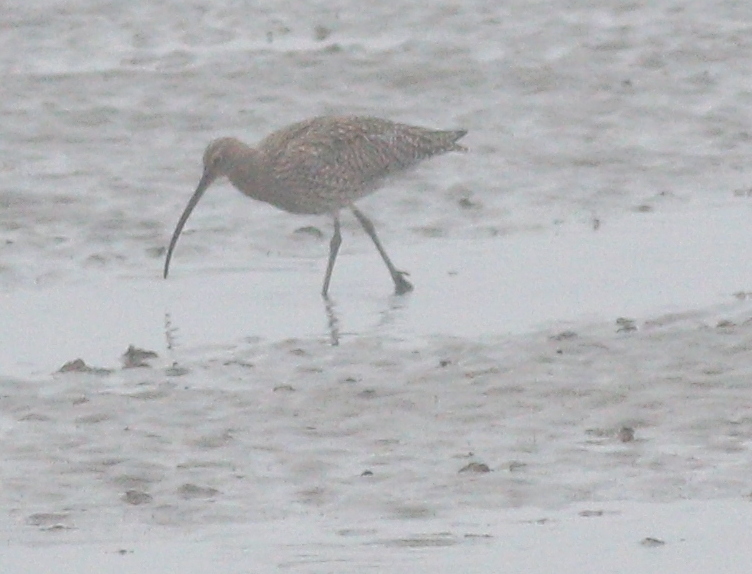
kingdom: Animalia
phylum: Chordata
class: Aves
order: Charadriiformes
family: Scolopacidae
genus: Numenius
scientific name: Numenius arquata
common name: Eurasian curlew
